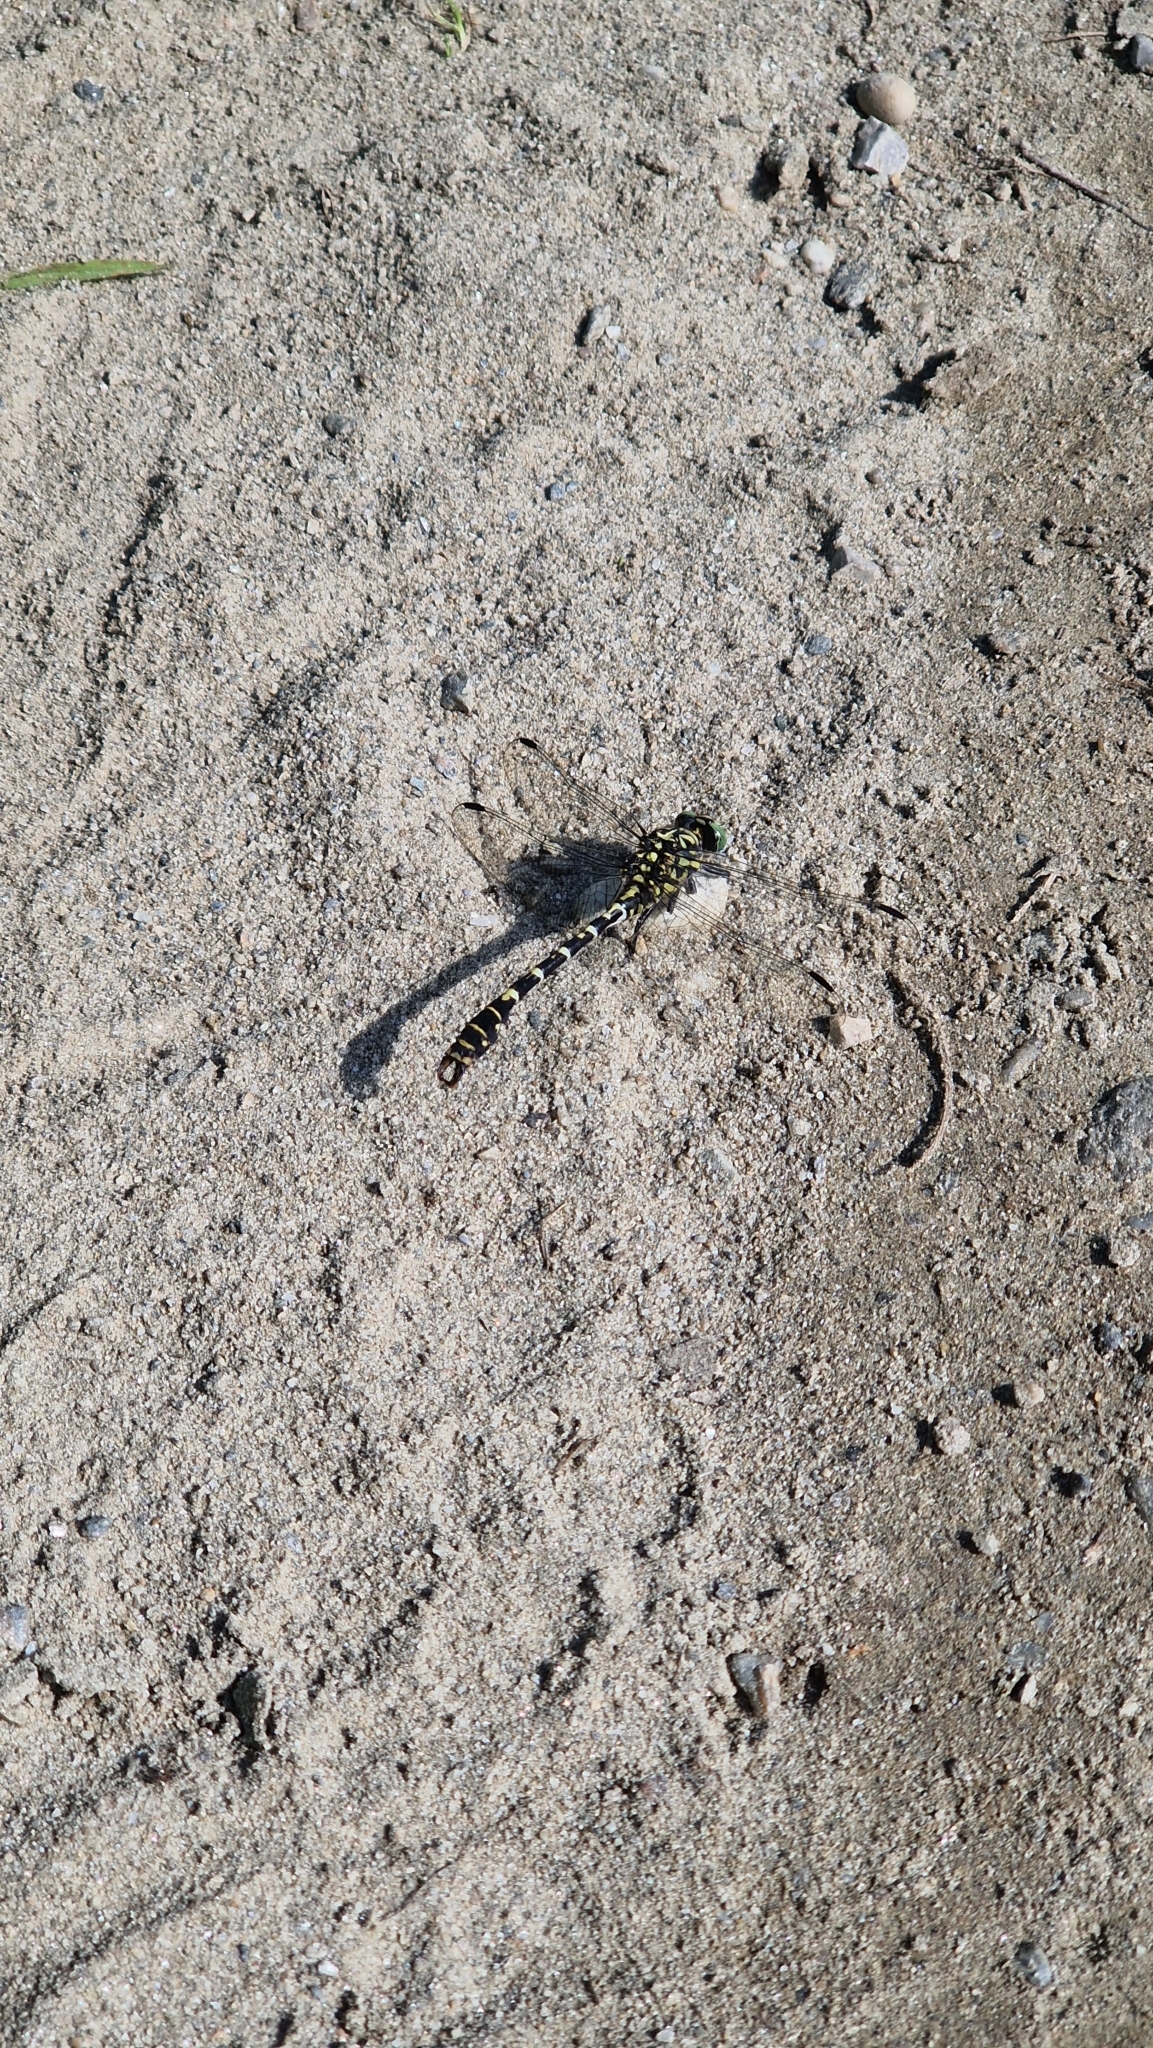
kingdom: Animalia
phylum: Arthropoda
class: Insecta
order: Odonata
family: Gomphidae
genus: Onychogomphus
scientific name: Onychogomphus forcipatus
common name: Small pincertail
